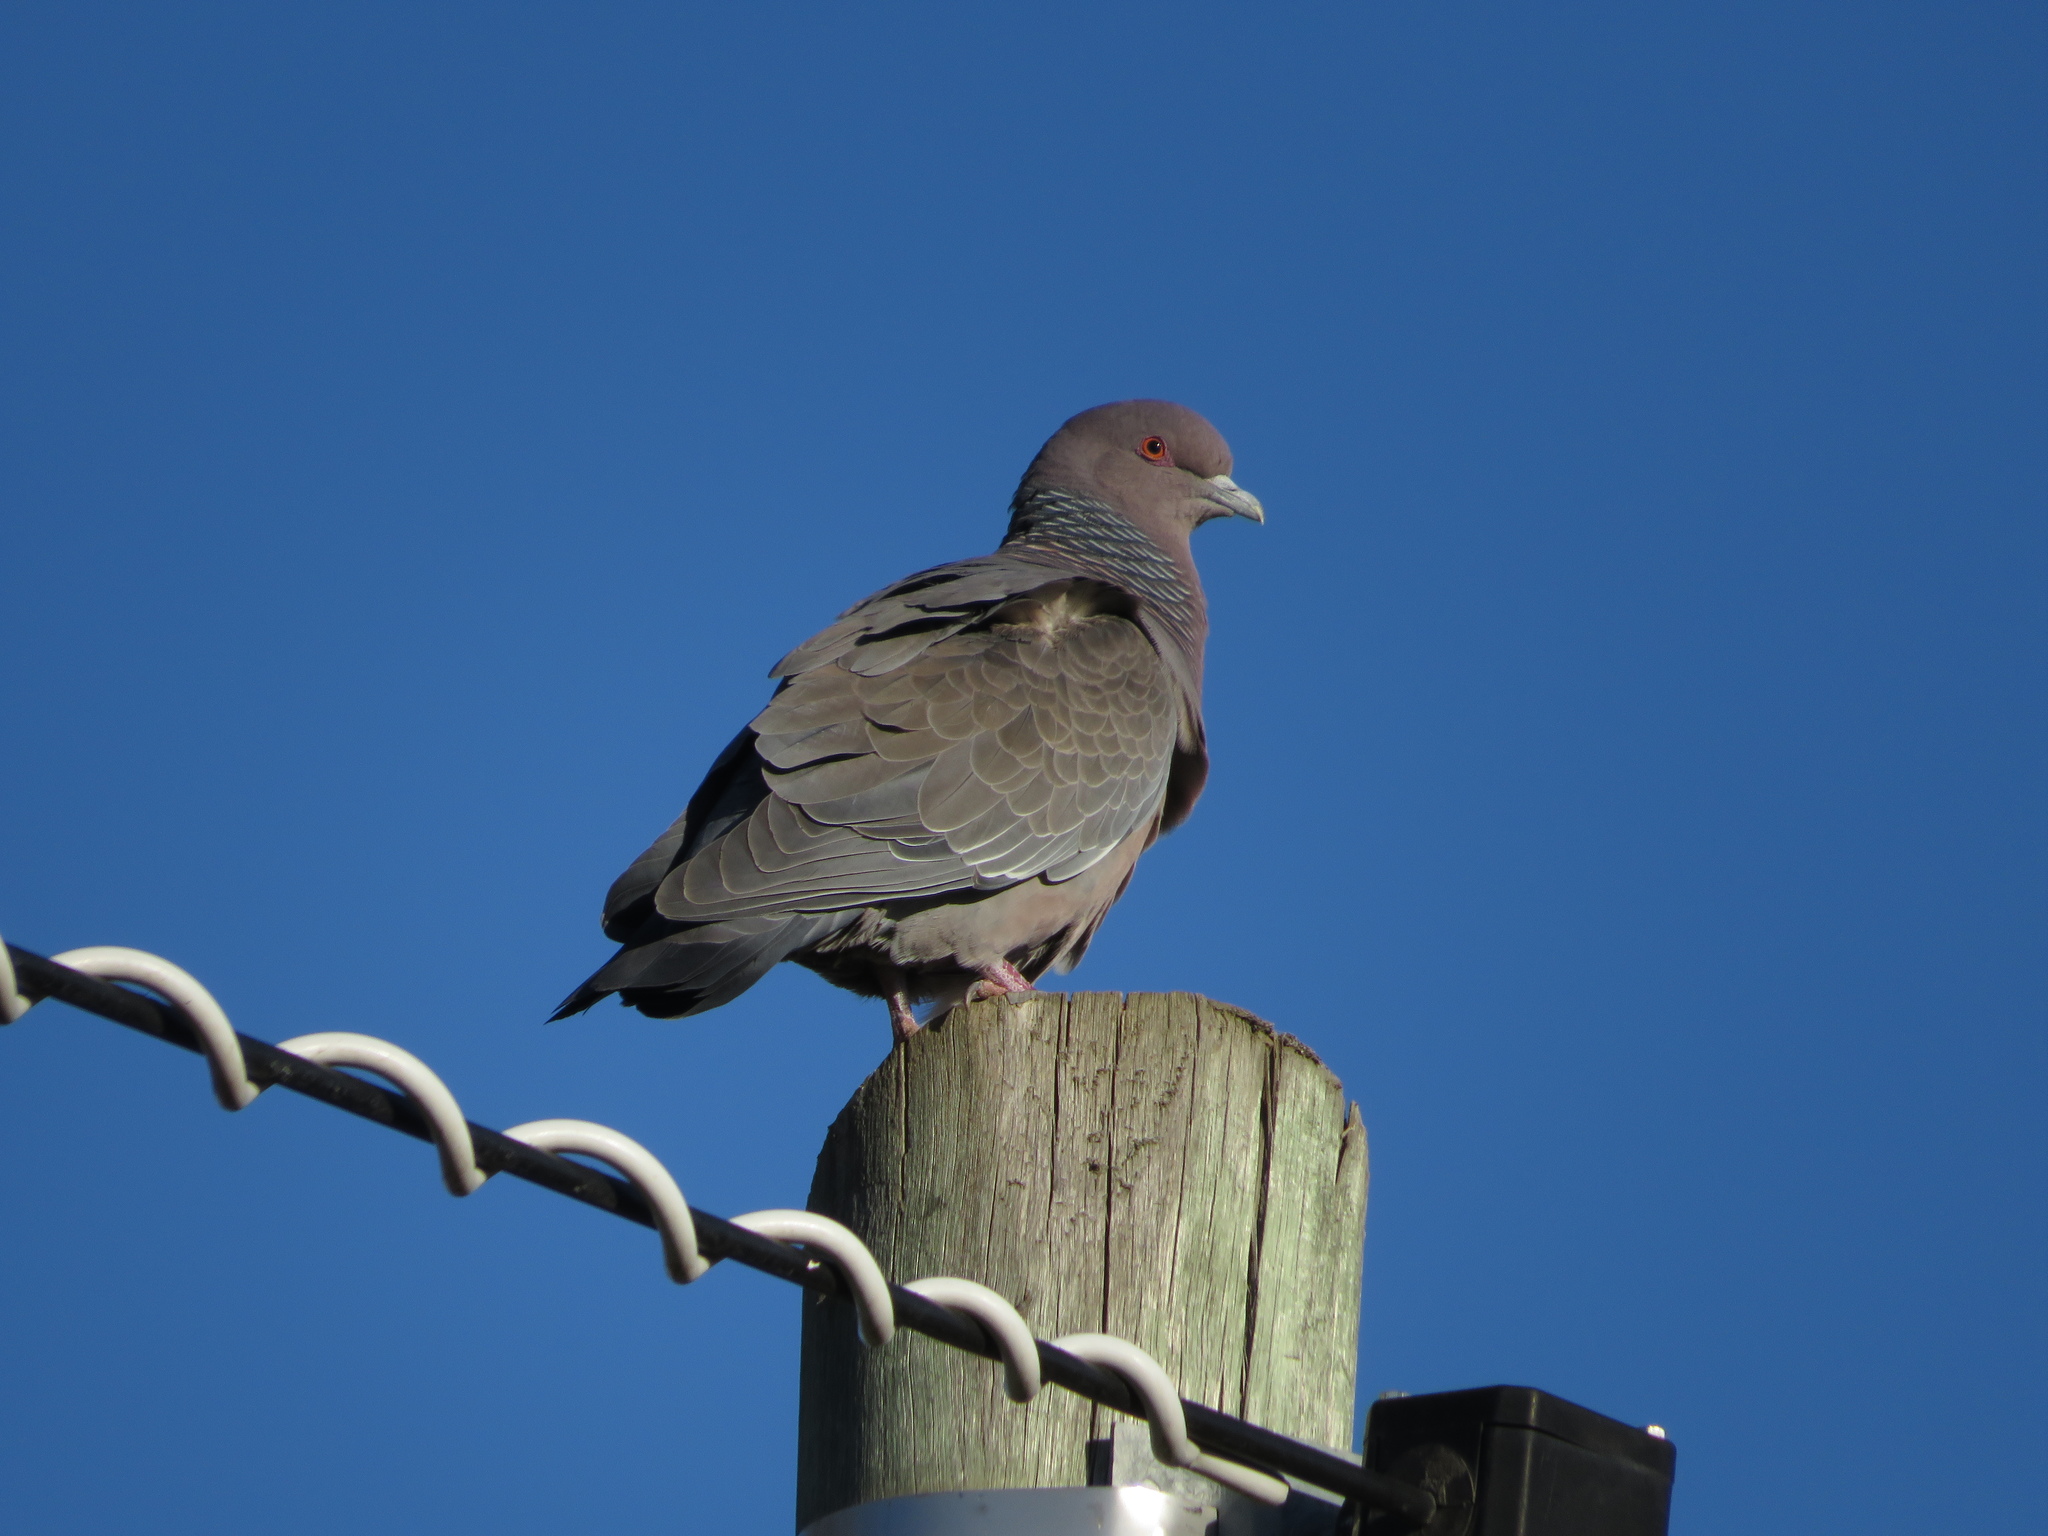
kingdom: Animalia
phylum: Chordata
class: Aves
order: Columbiformes
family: Columbidae
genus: Patagioenas
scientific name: Patagioenas picazuro
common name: Picazuro pigeon
